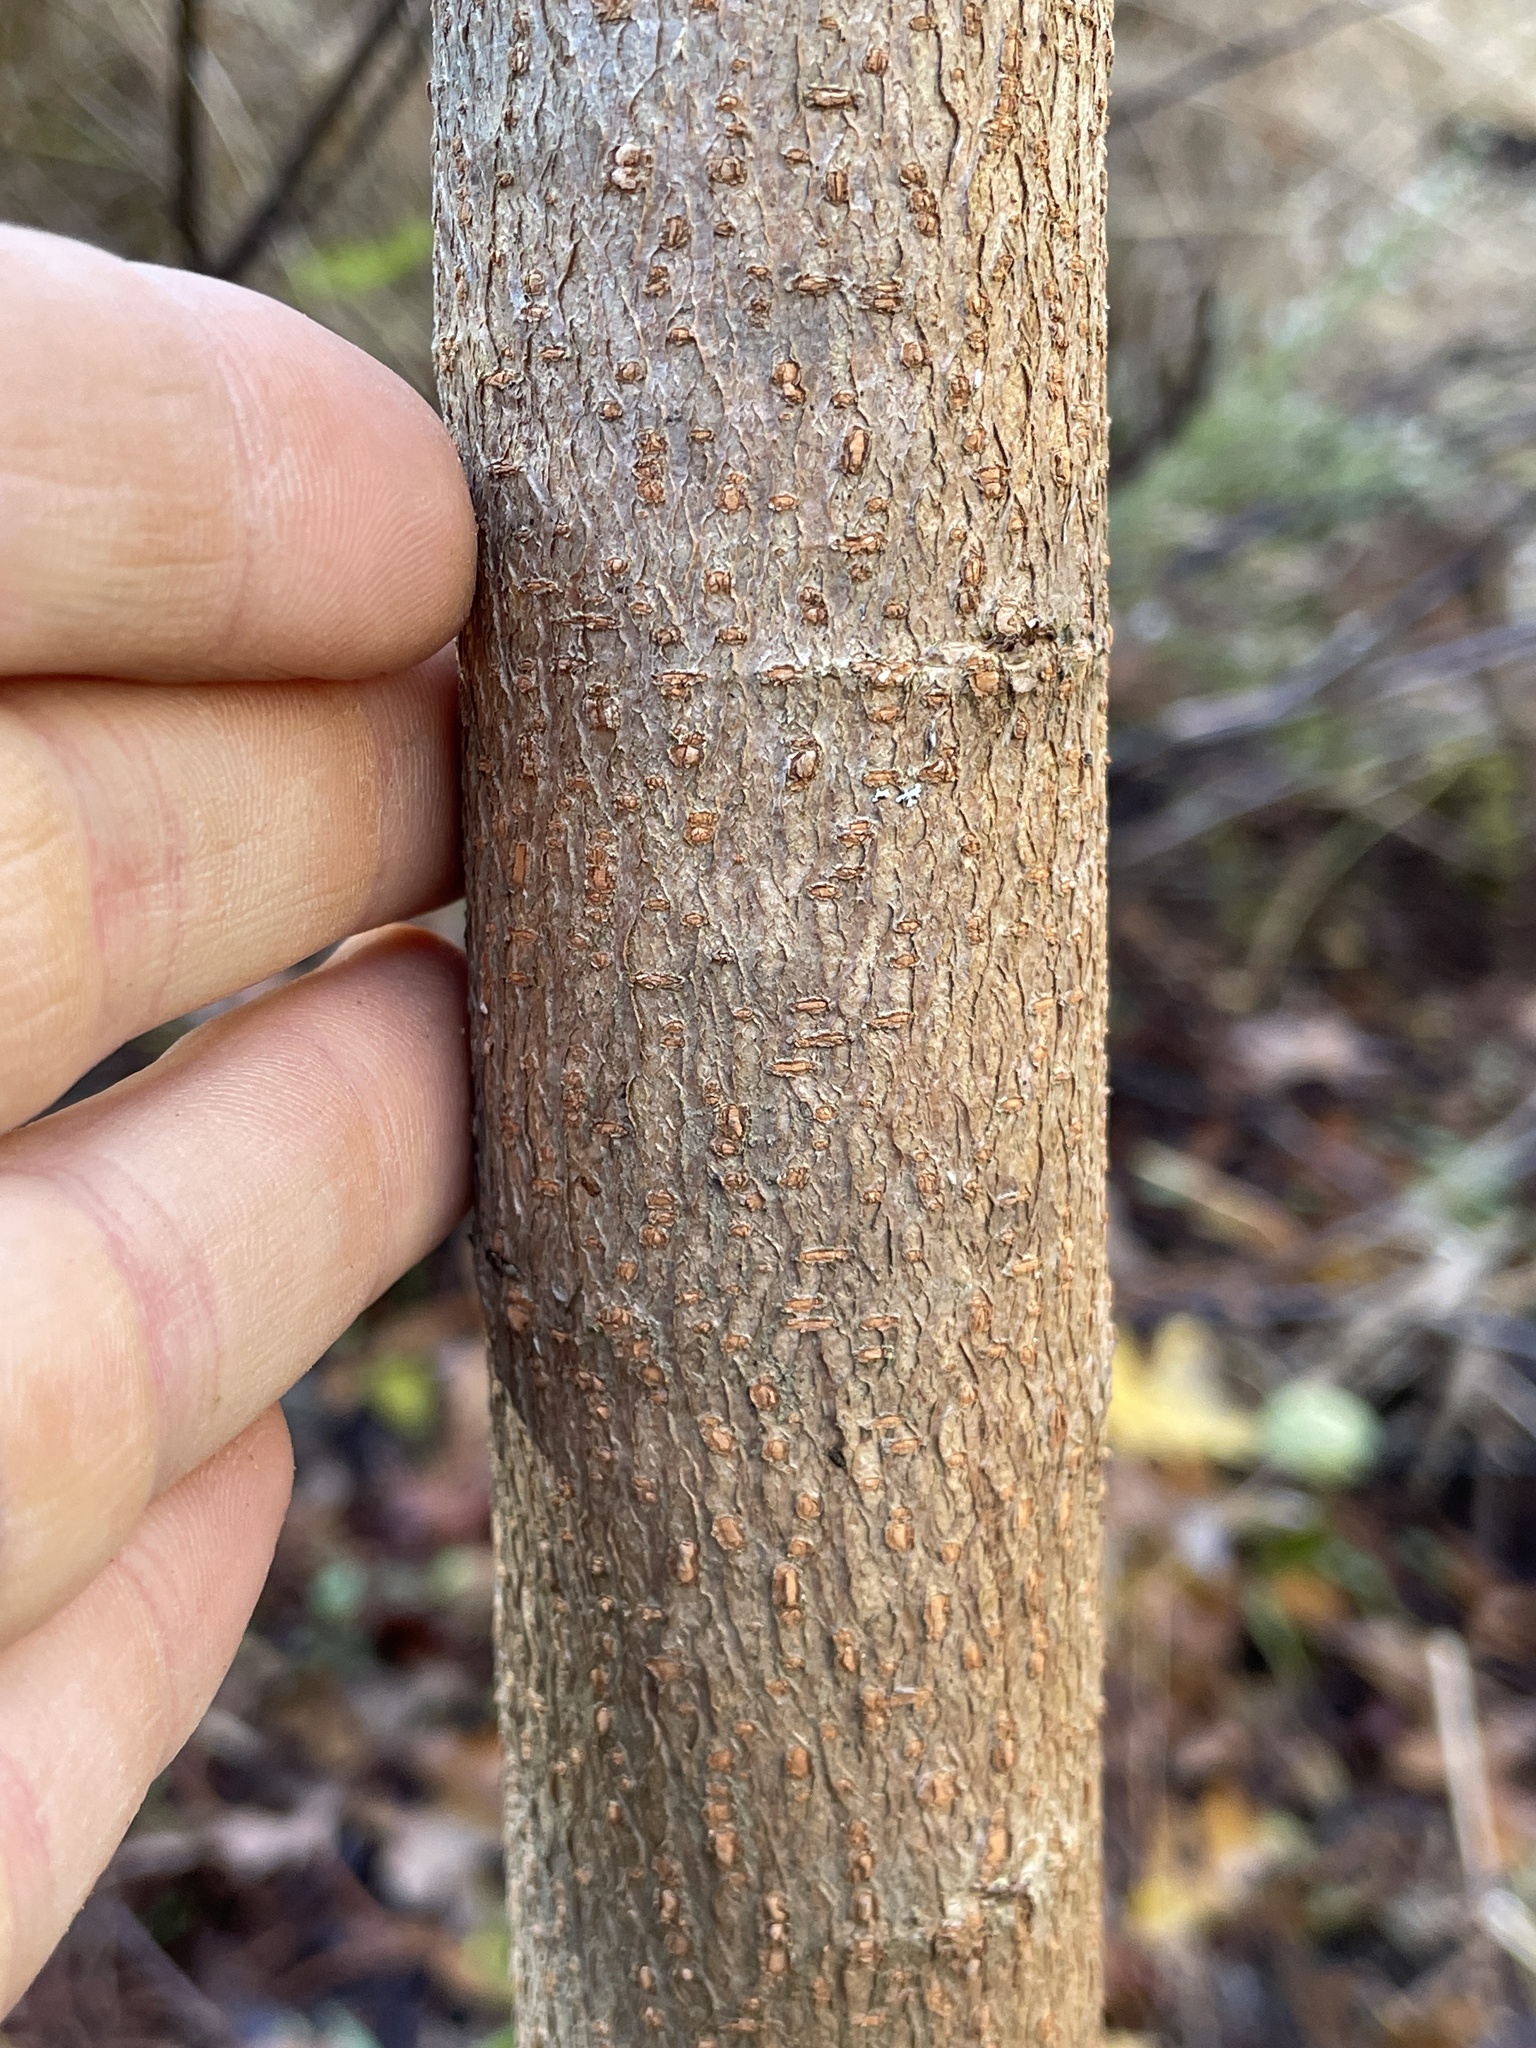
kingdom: Plantae
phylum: Tracheophyta
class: Magnoliopsida
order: Malpighiales
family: Euphorbiaceae
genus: Triadica
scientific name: Triadica sebifera
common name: Chinese tallow
